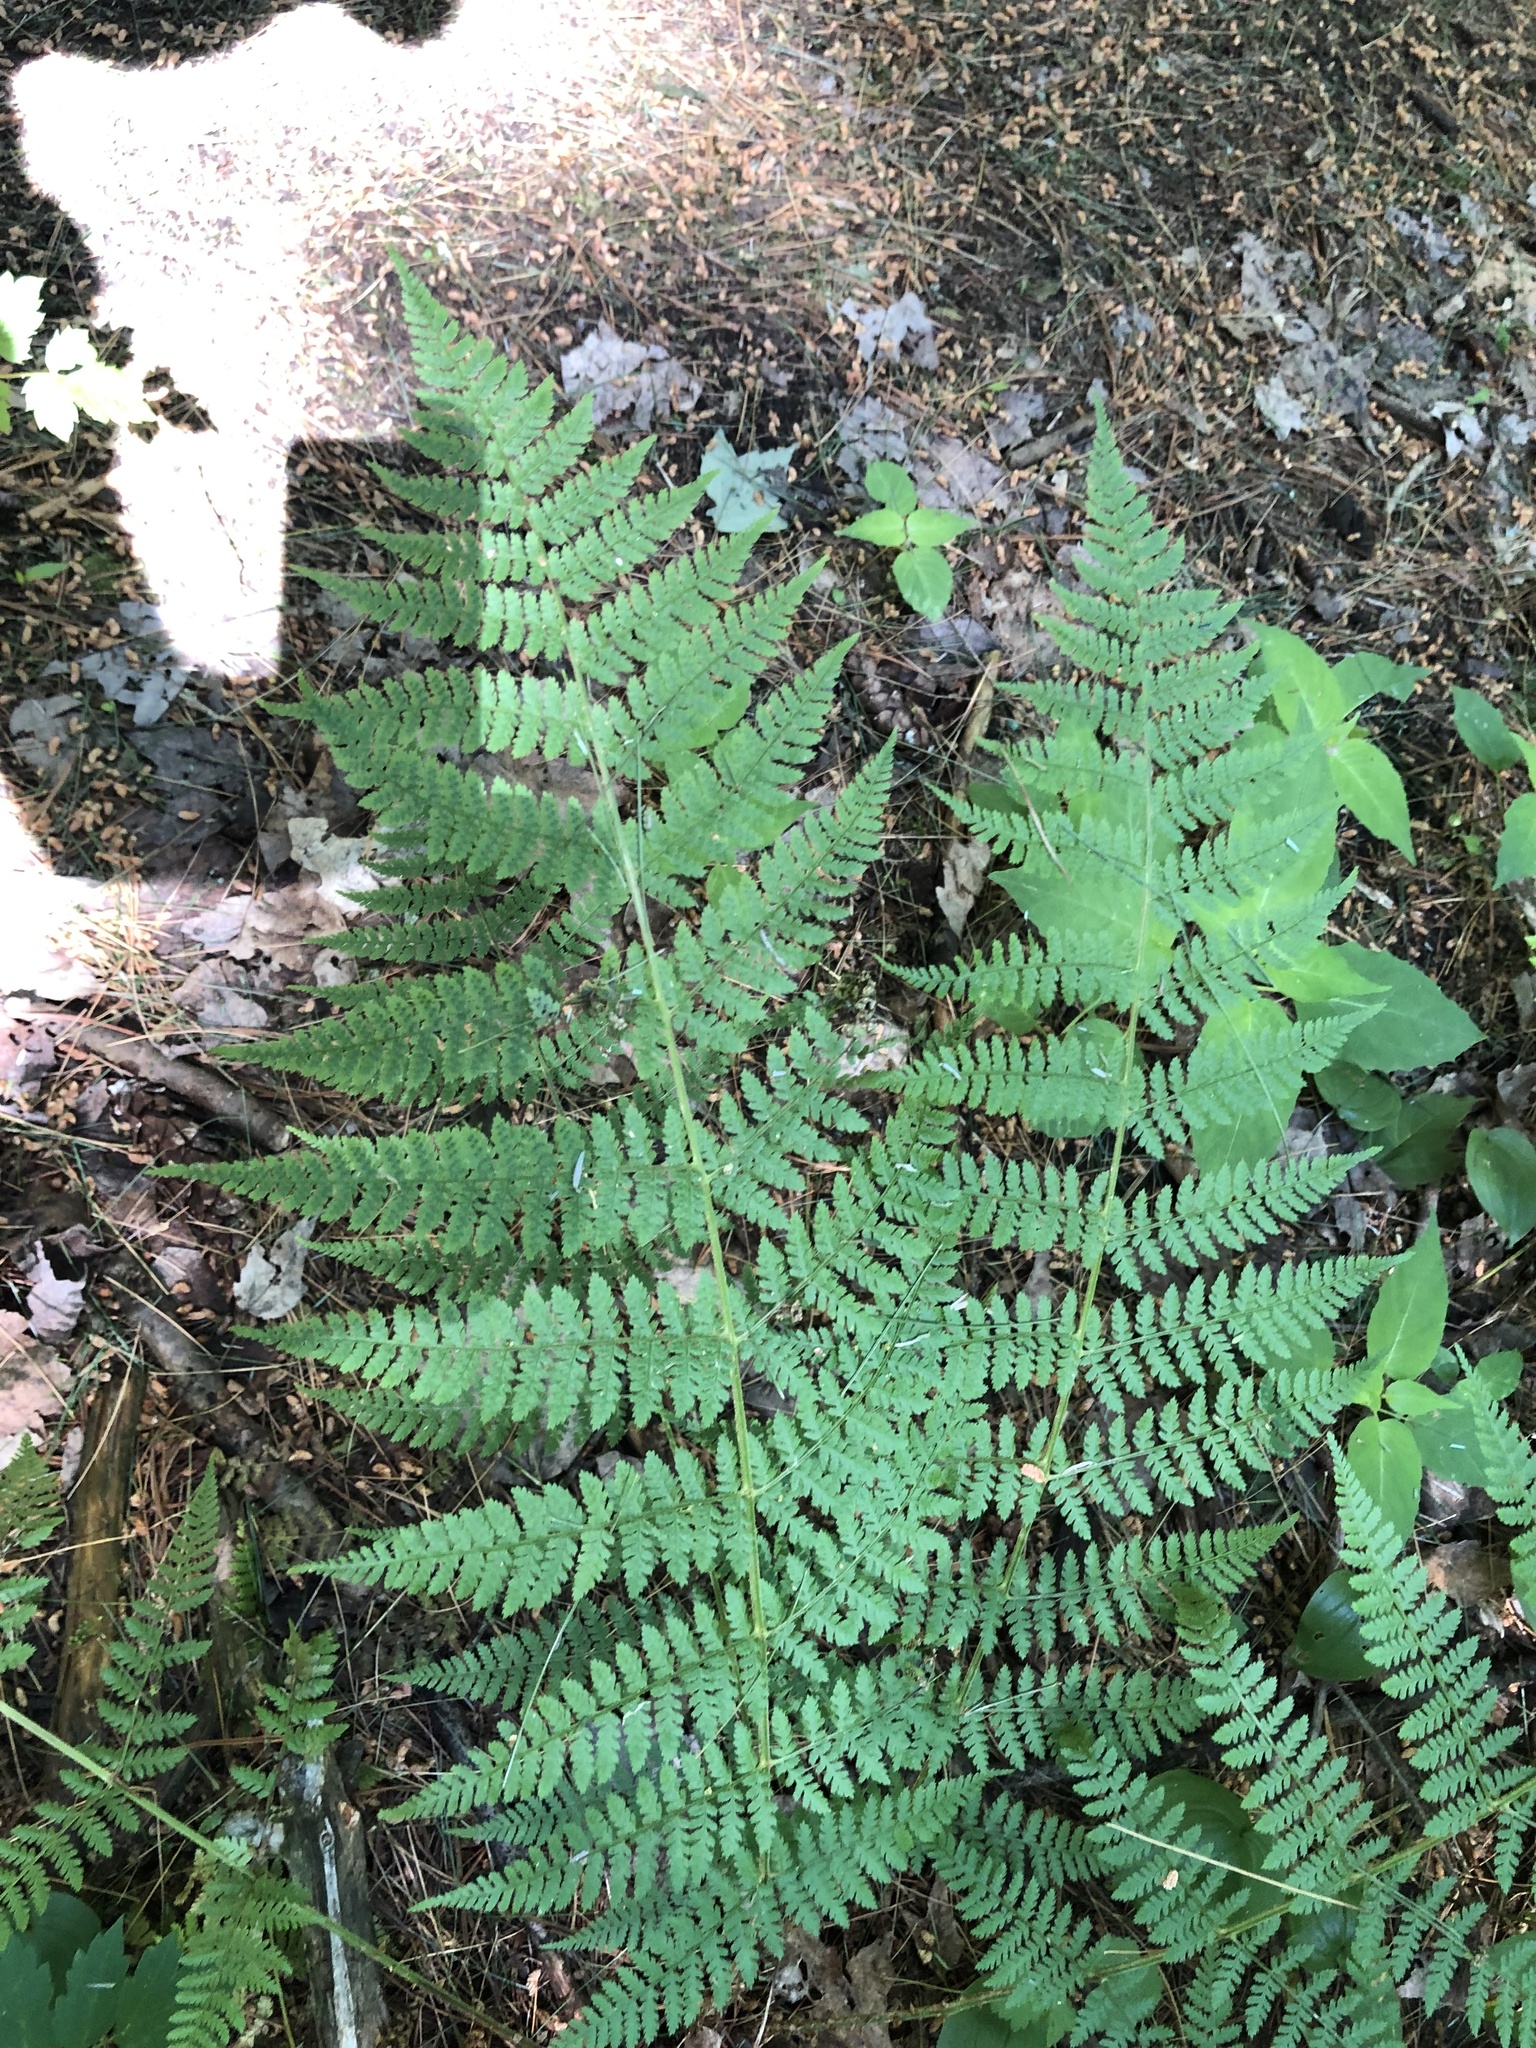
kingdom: Plantae
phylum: Tracheophyta
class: Polypodiopsida
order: Polypodiales
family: Dryopteridaceae
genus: Dryopteris
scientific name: Dryopteris intermedia
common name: Evergreen wood fern
